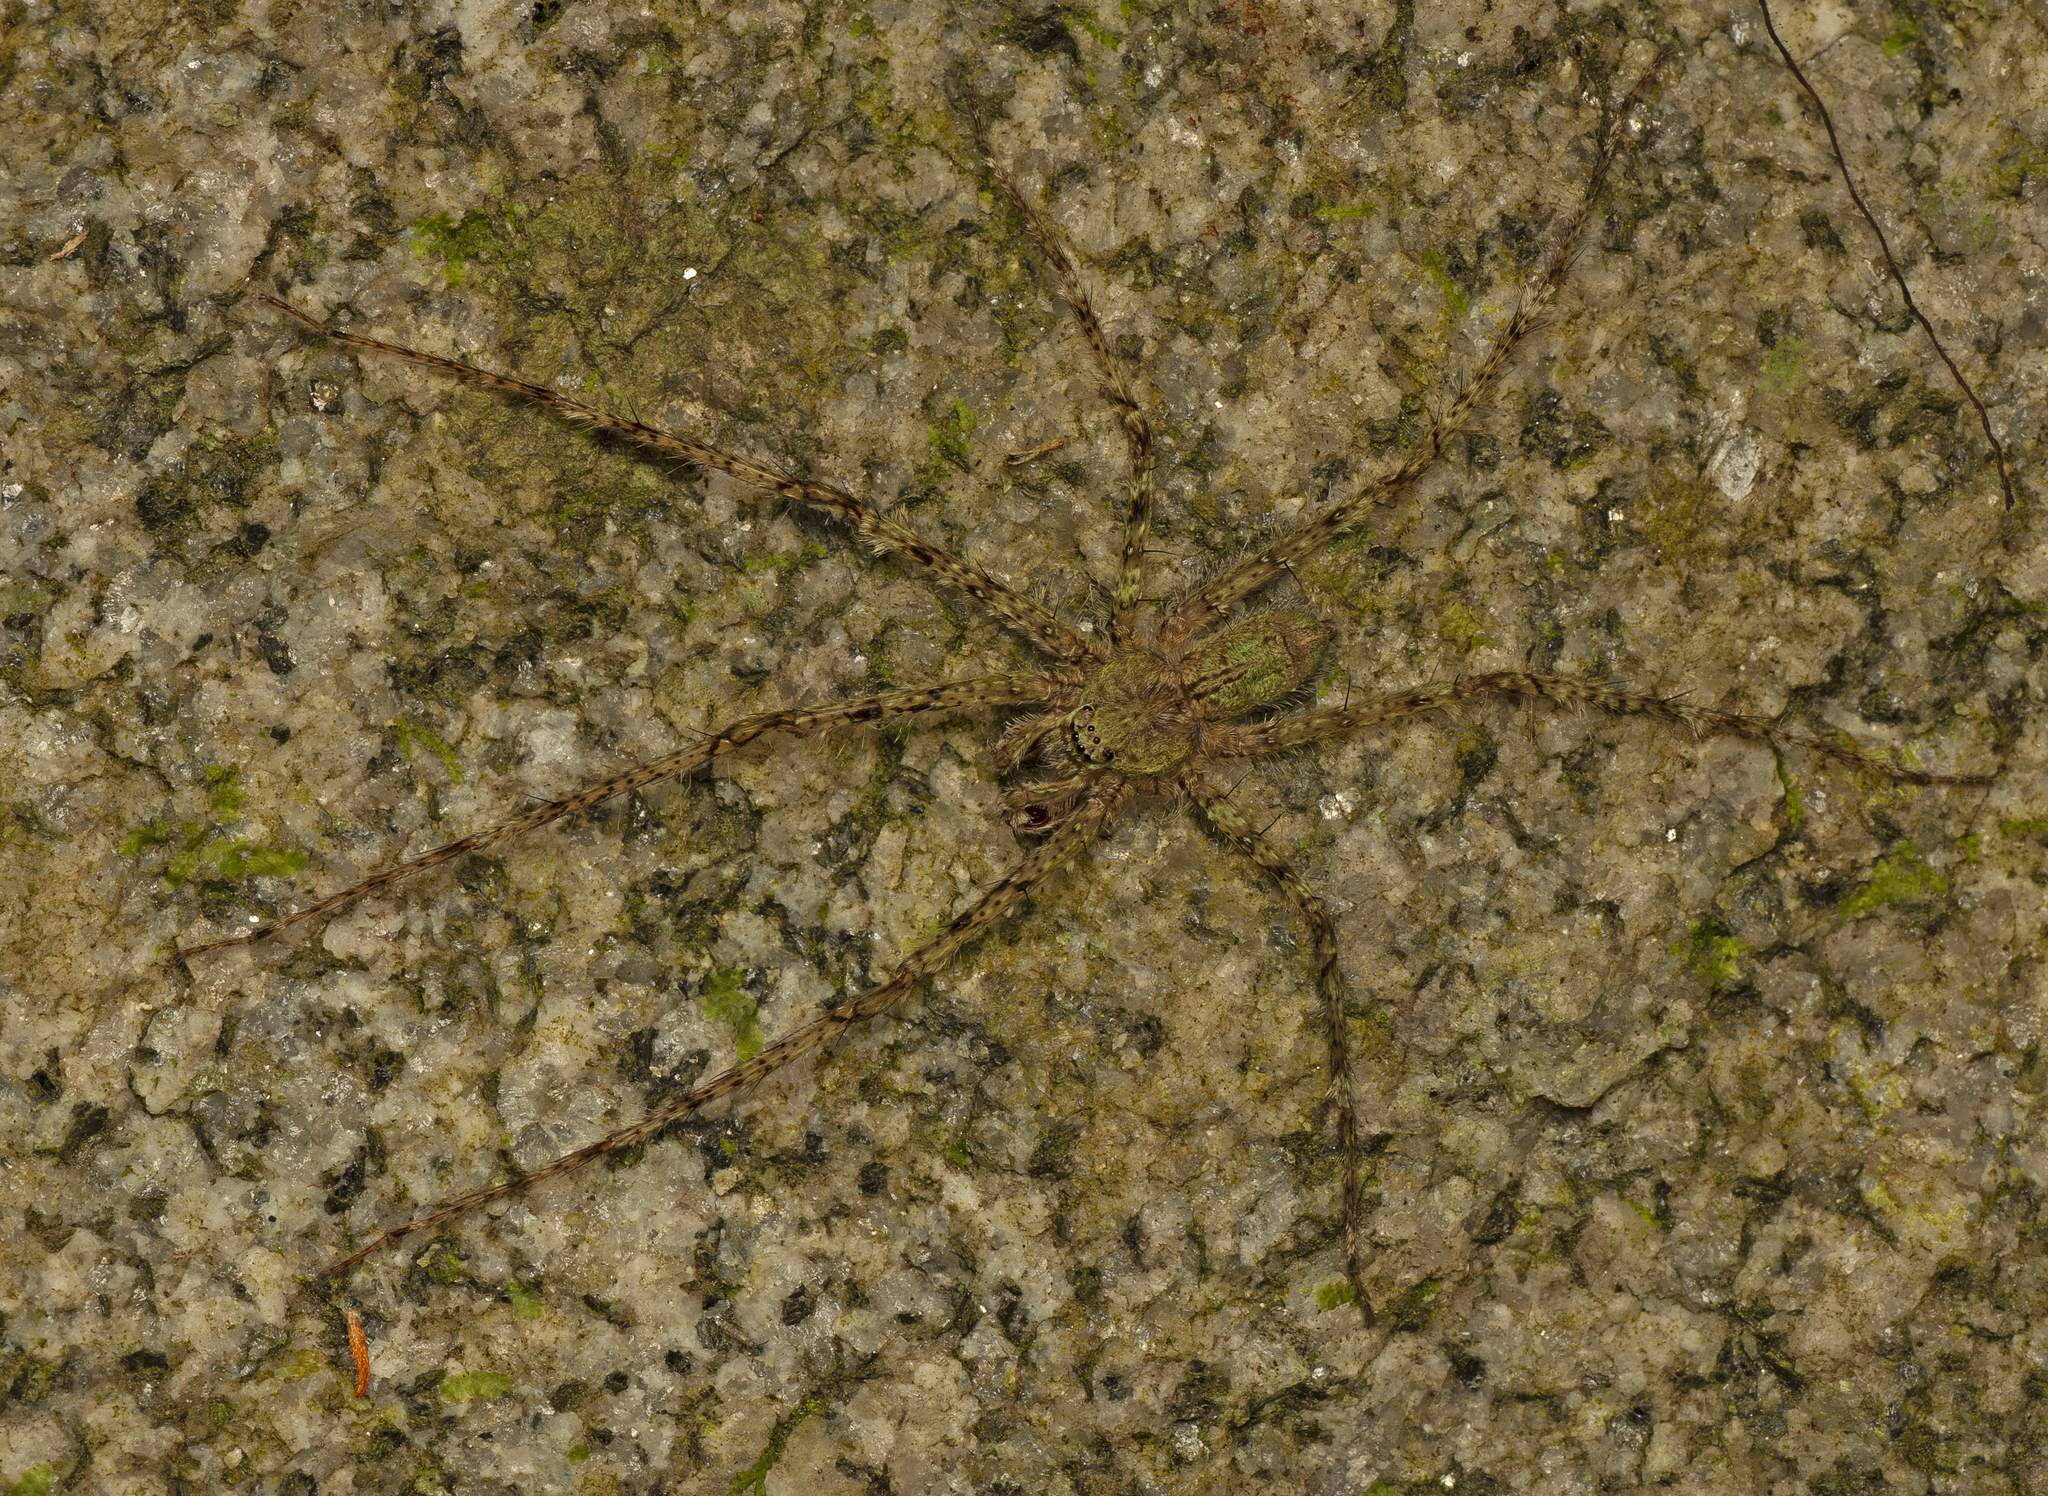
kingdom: Animalia
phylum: Arthropoda
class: Arachnida
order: Araneae
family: Sparassidae
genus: Pandercetes
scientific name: Pandercetes gracilis
